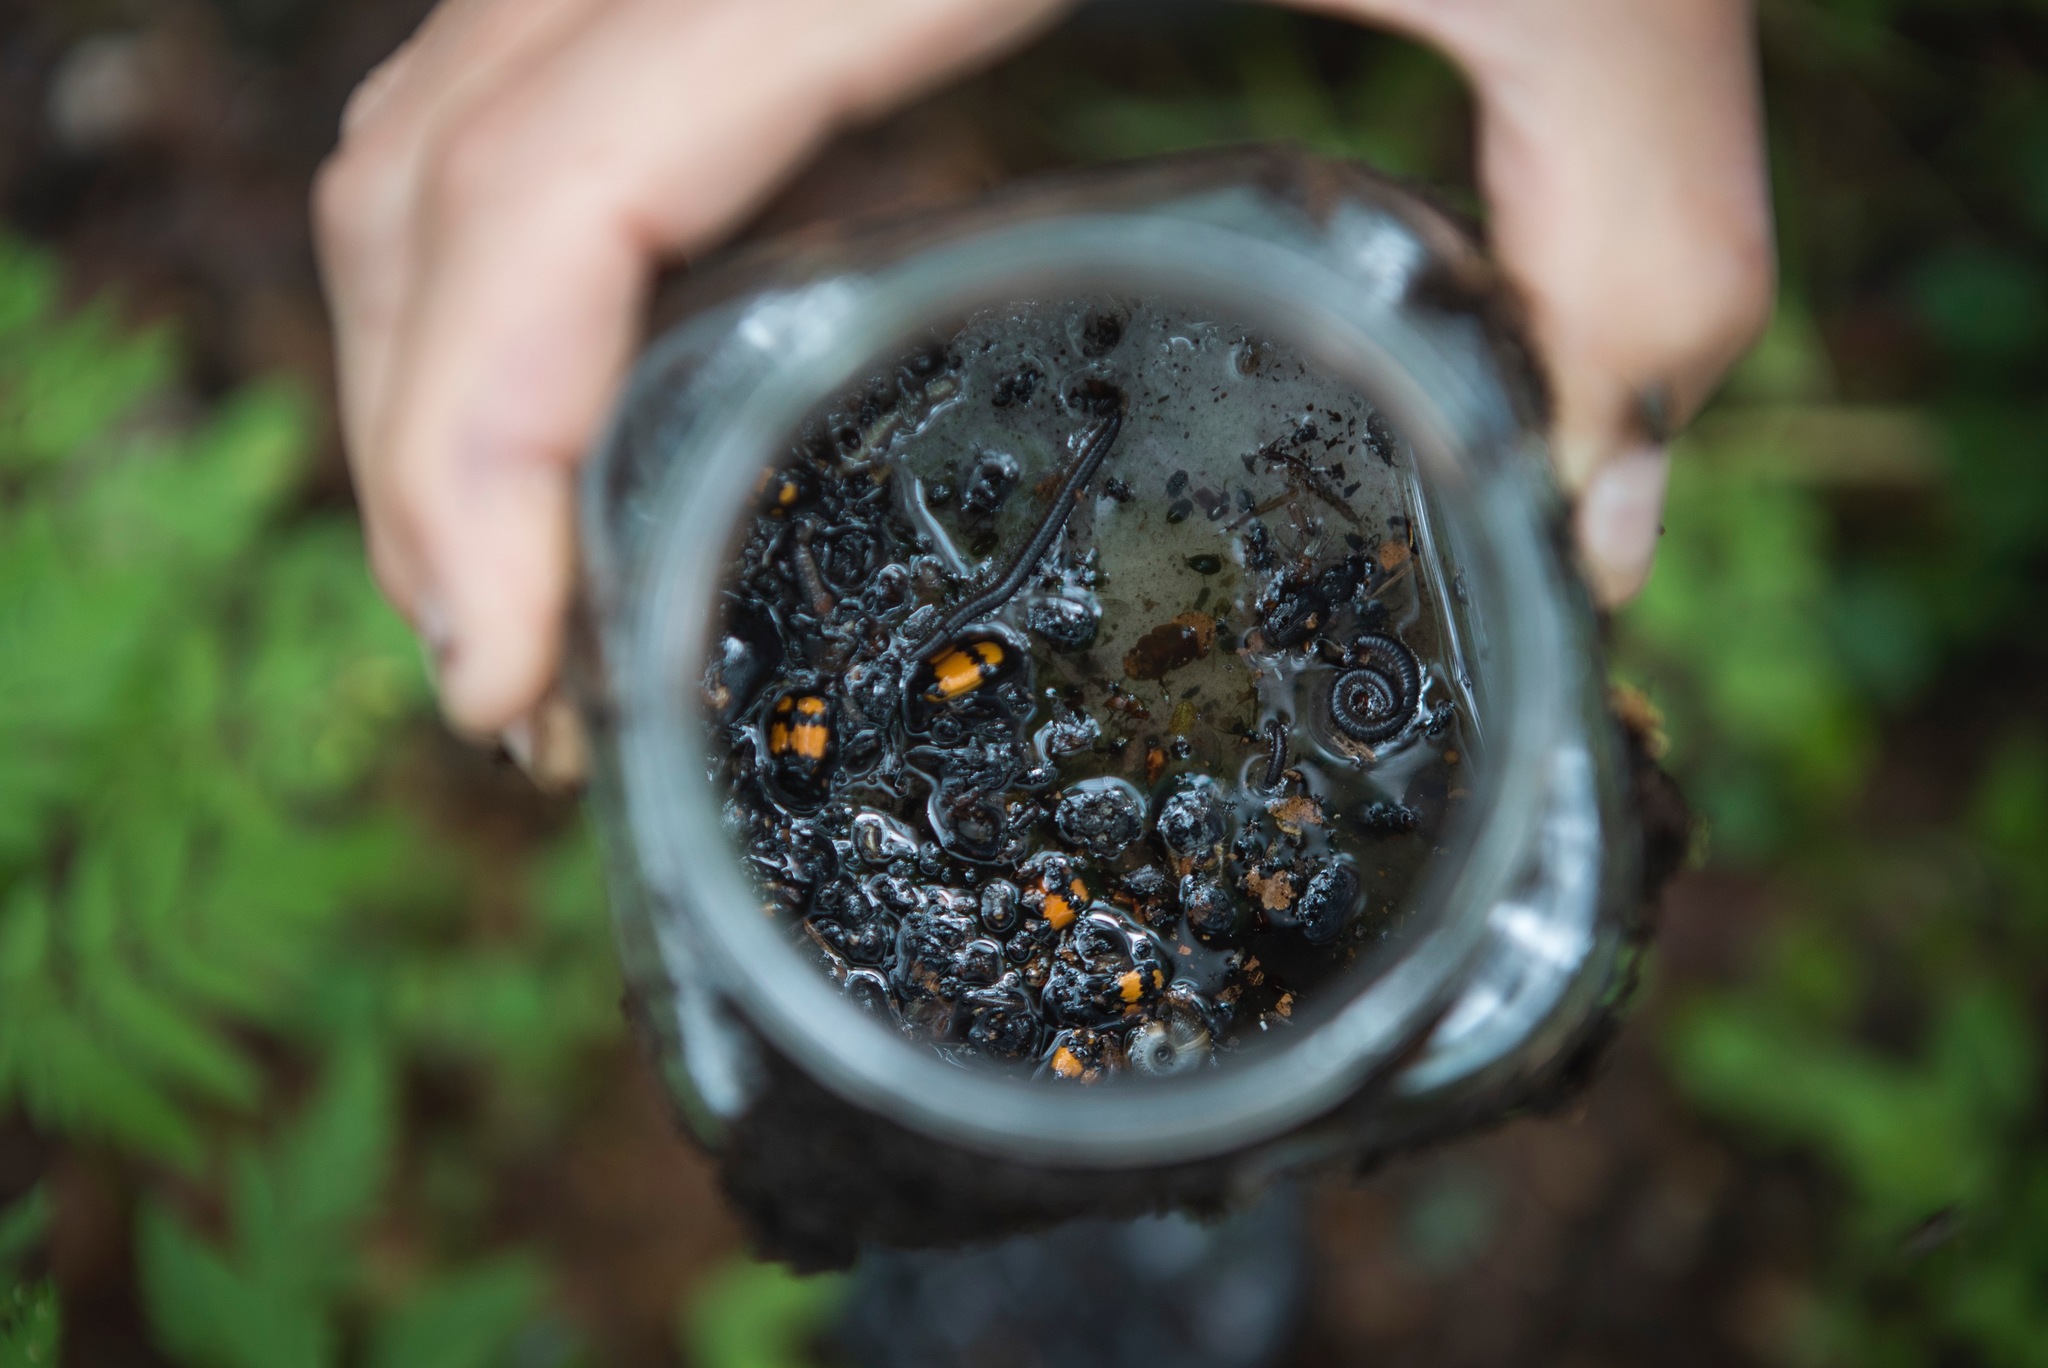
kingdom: Animalia
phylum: Arthropoda
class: Insecta
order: Coleoptera
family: Staphylinidae
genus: Nicrophorus
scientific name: Nicrophorus vespilloides
